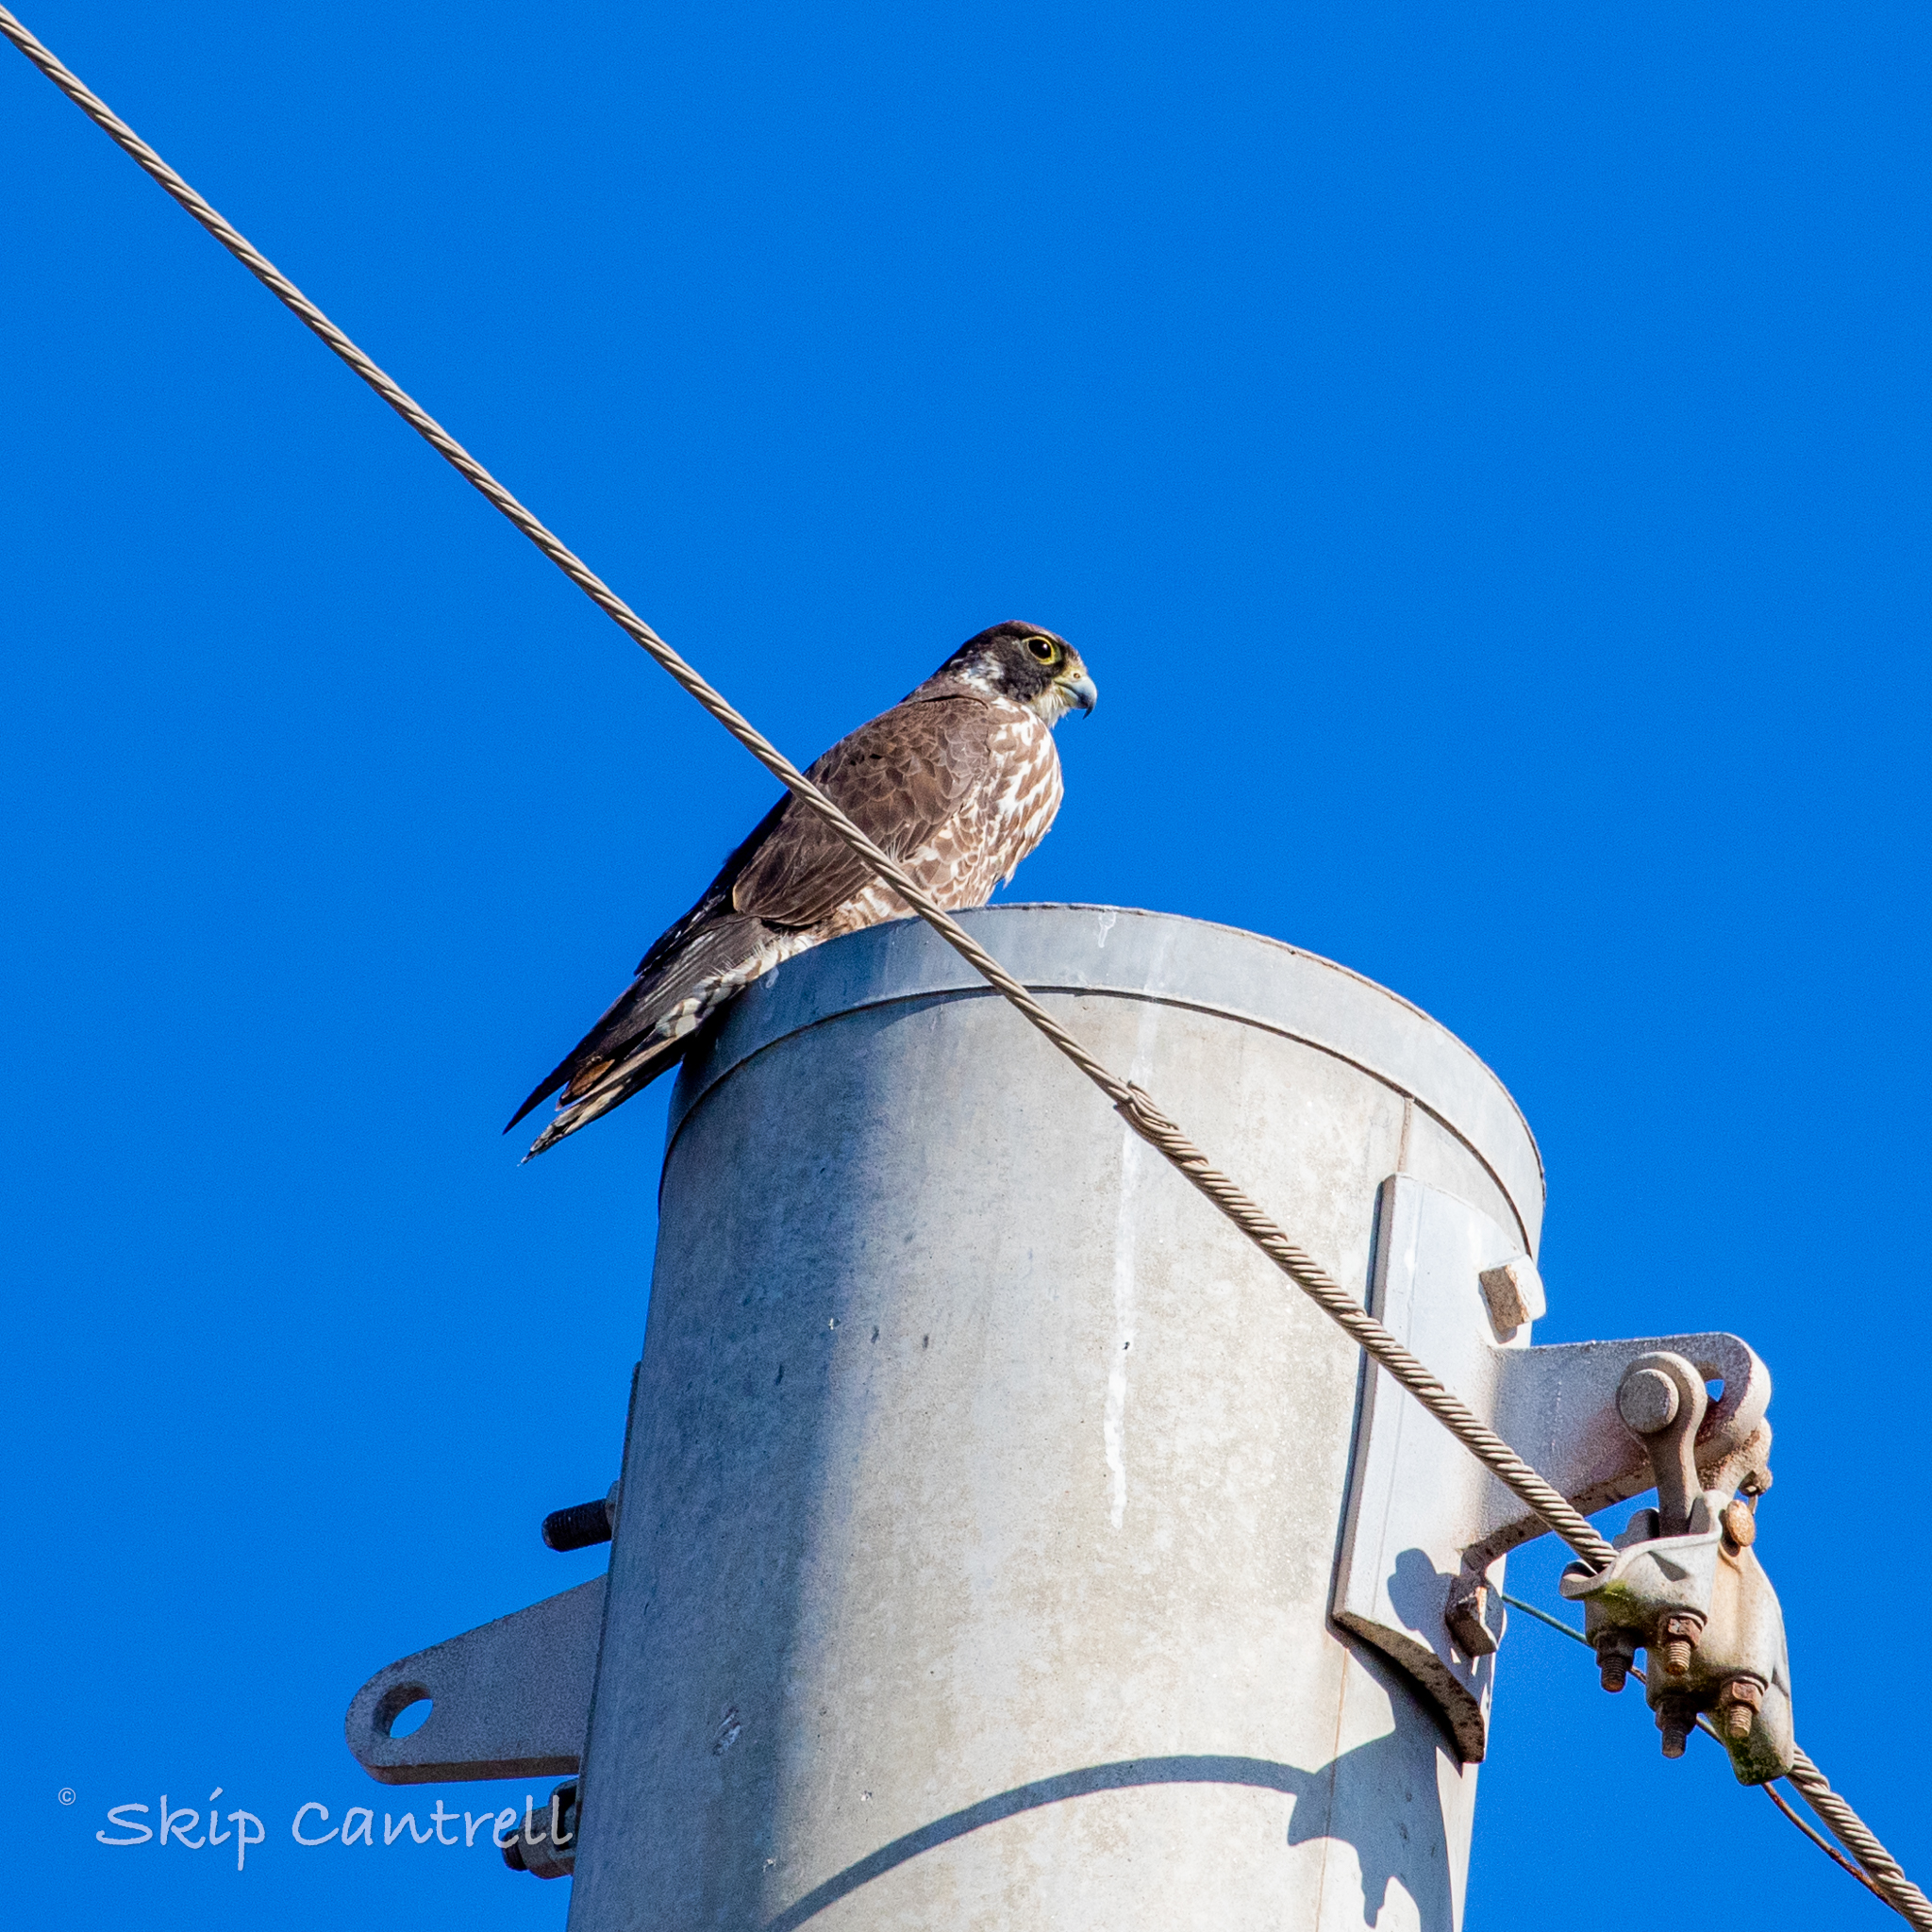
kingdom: Animalia
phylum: Chordata
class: Aves
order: Falconiformes
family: Falconidae
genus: Falco
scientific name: Falco peregrinus
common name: Peregrine falcon
